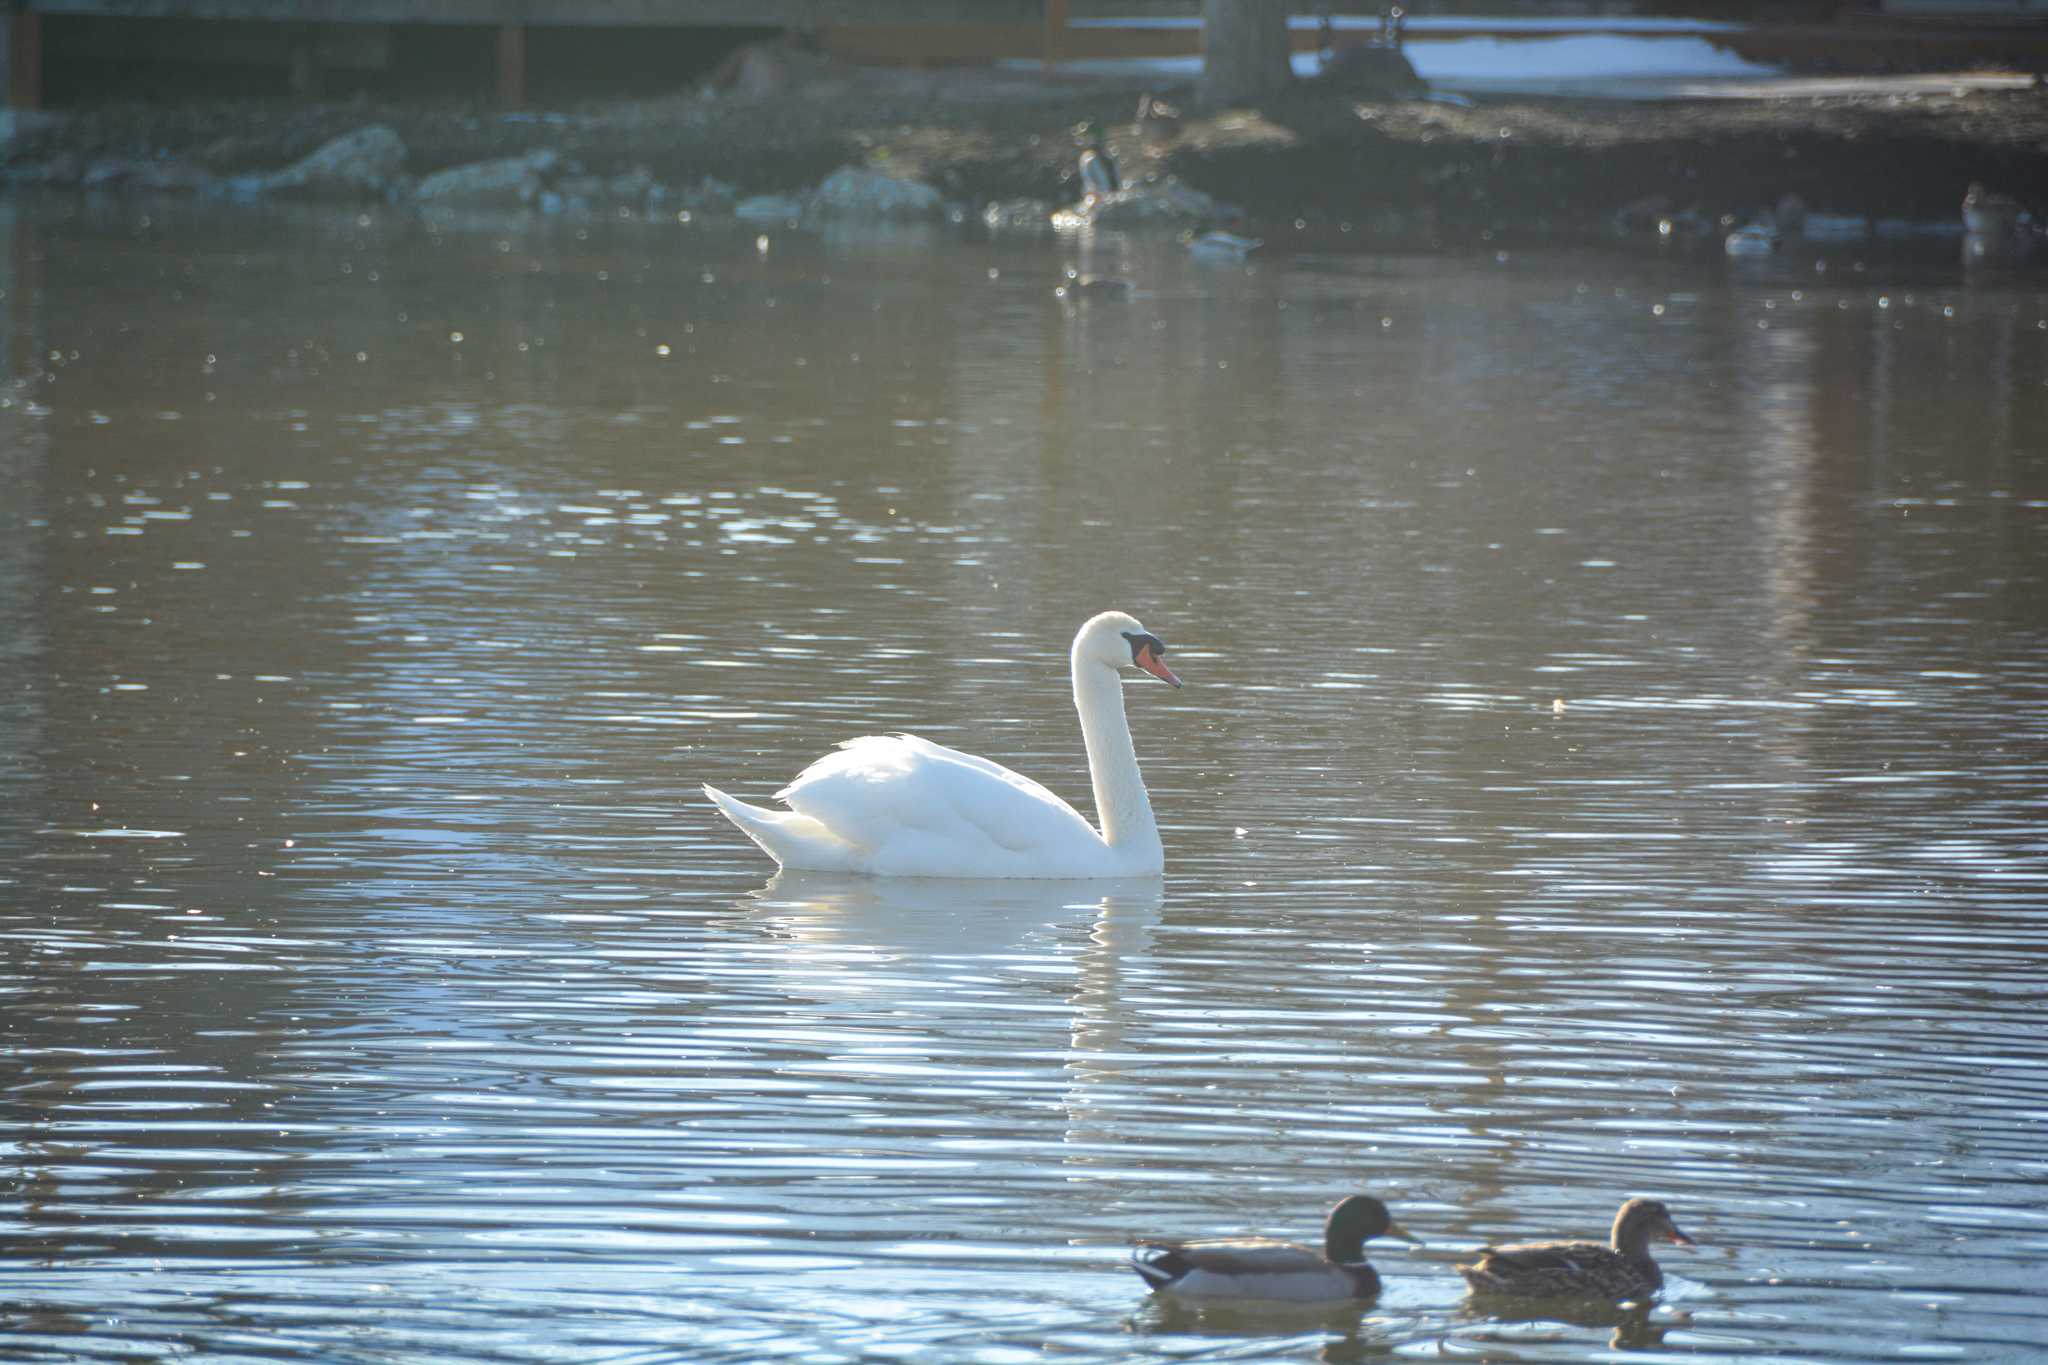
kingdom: Animalia
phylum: Chordata
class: Aves
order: Anseriformes
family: Anatidae
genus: Cygnus
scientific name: Cygnus olor
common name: Mute swan
